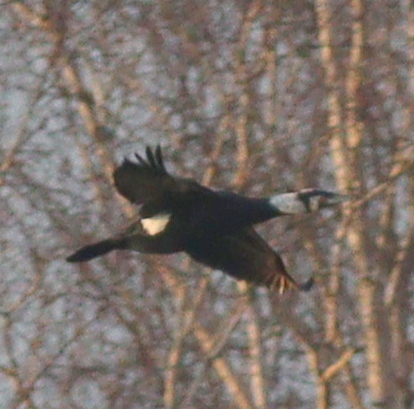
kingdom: Animalia
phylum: Chordata
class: Aves
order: Suliformes
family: Phalacrocoracidae
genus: Phalacrocorax
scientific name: Phalacrocorax carbo
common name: Great cormorant
